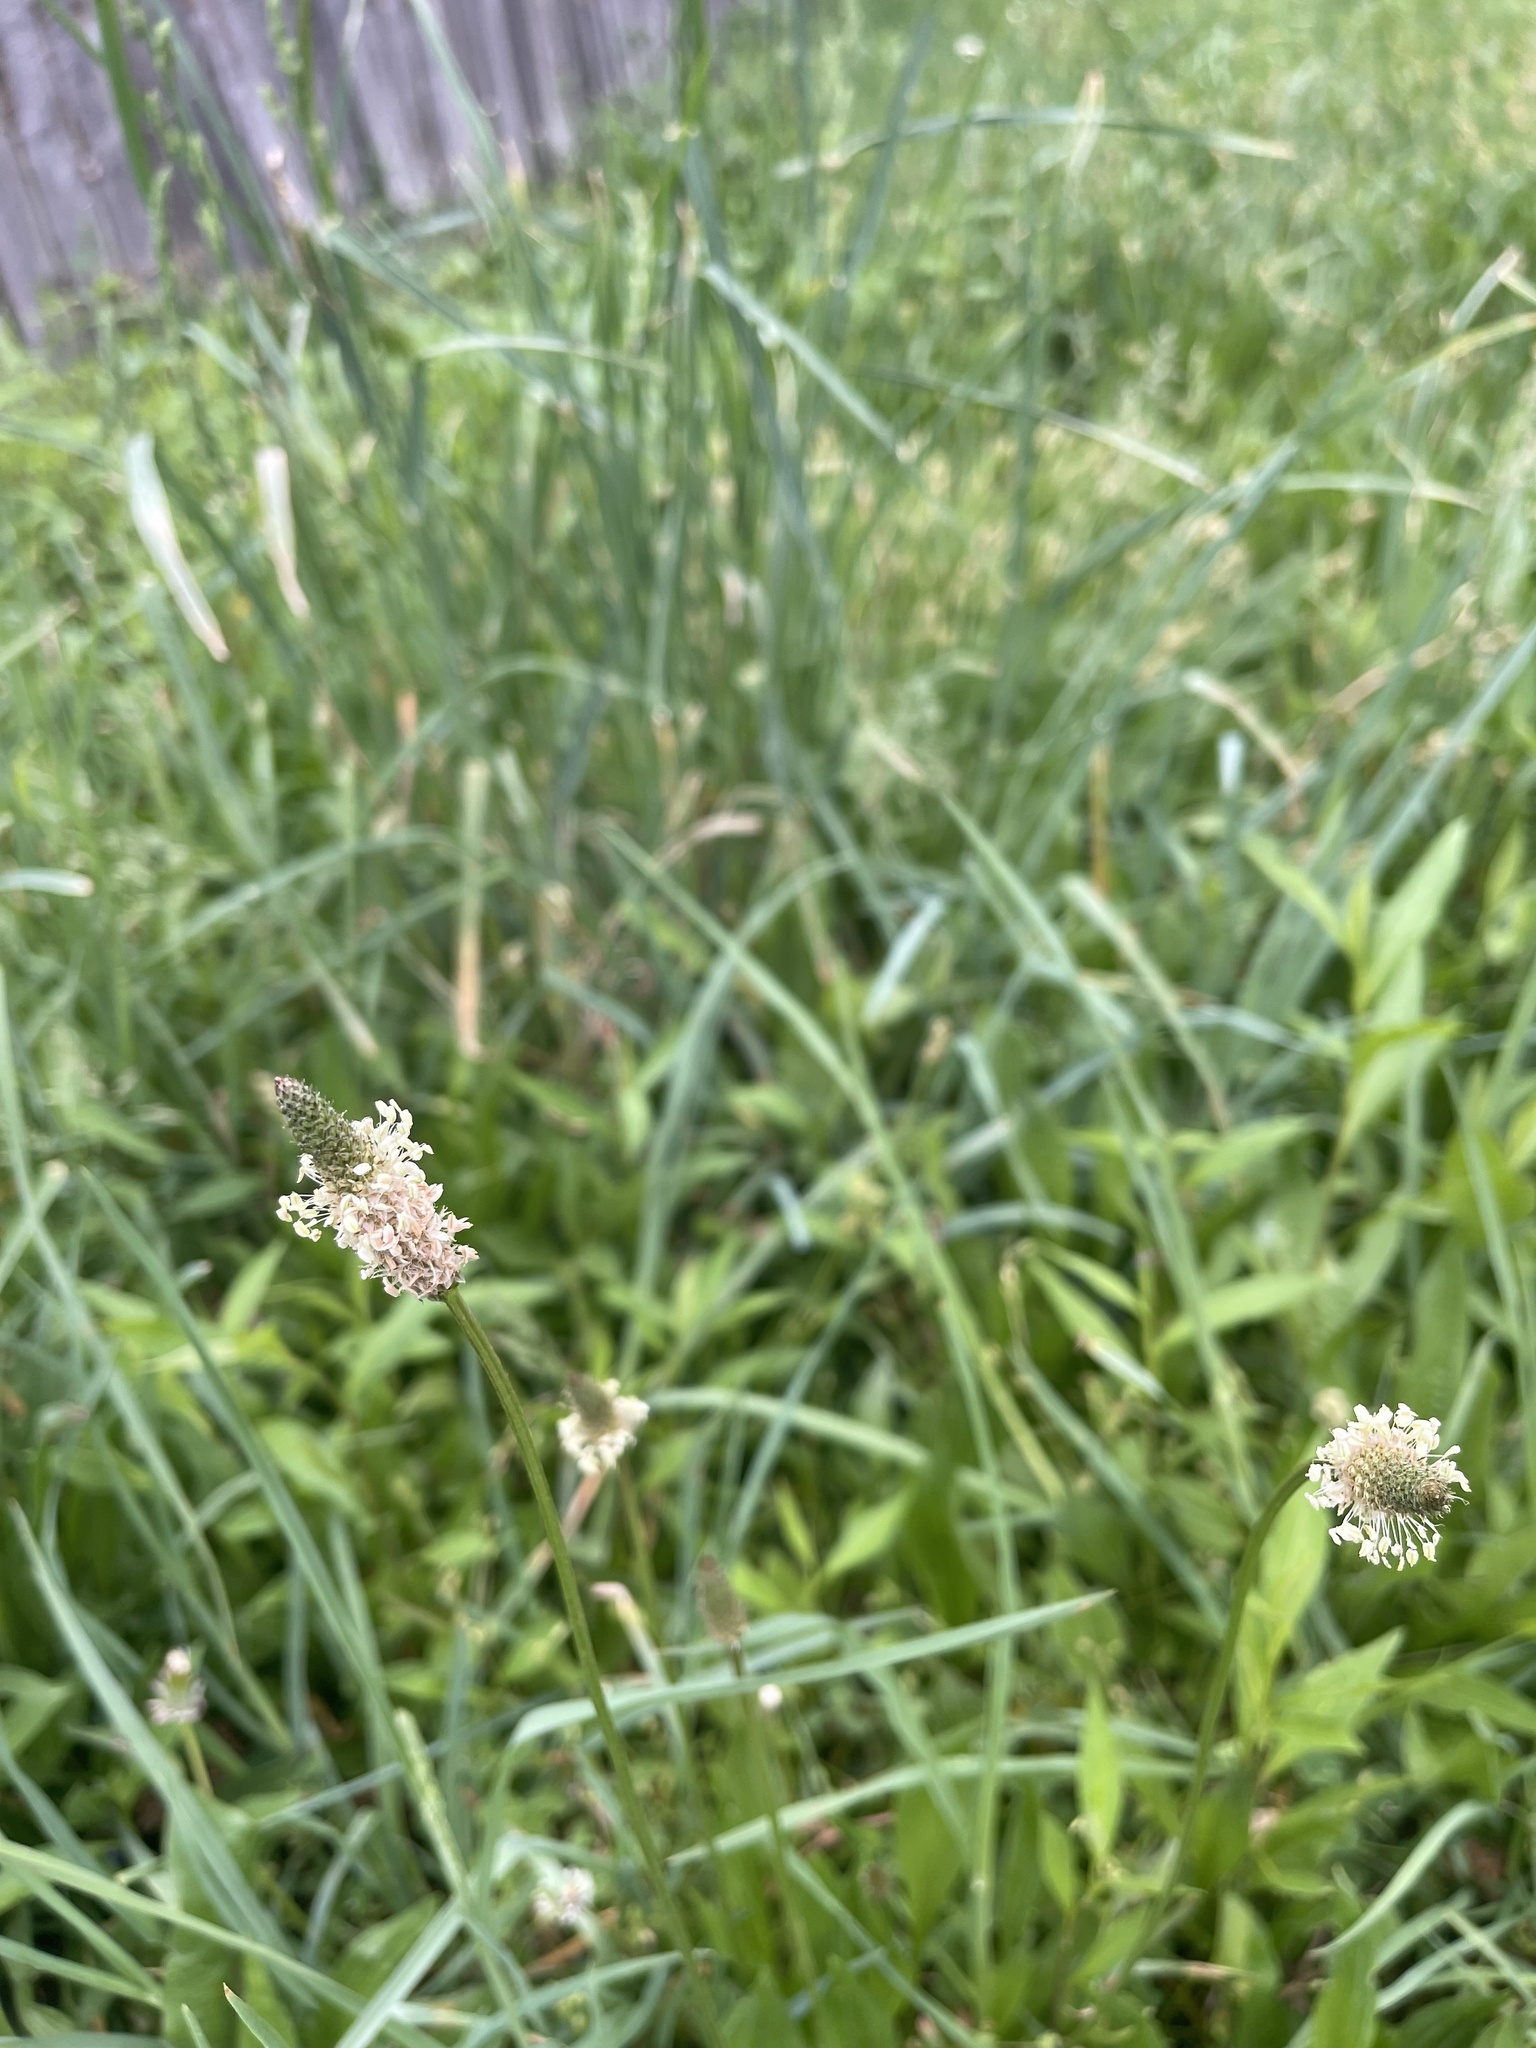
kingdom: Plantae
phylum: Tracheophyta
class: Magnoliopsida
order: Lamiales
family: Plantaginaceae
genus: Plantago
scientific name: Plantago lanceolata
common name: Ribwort plantain
